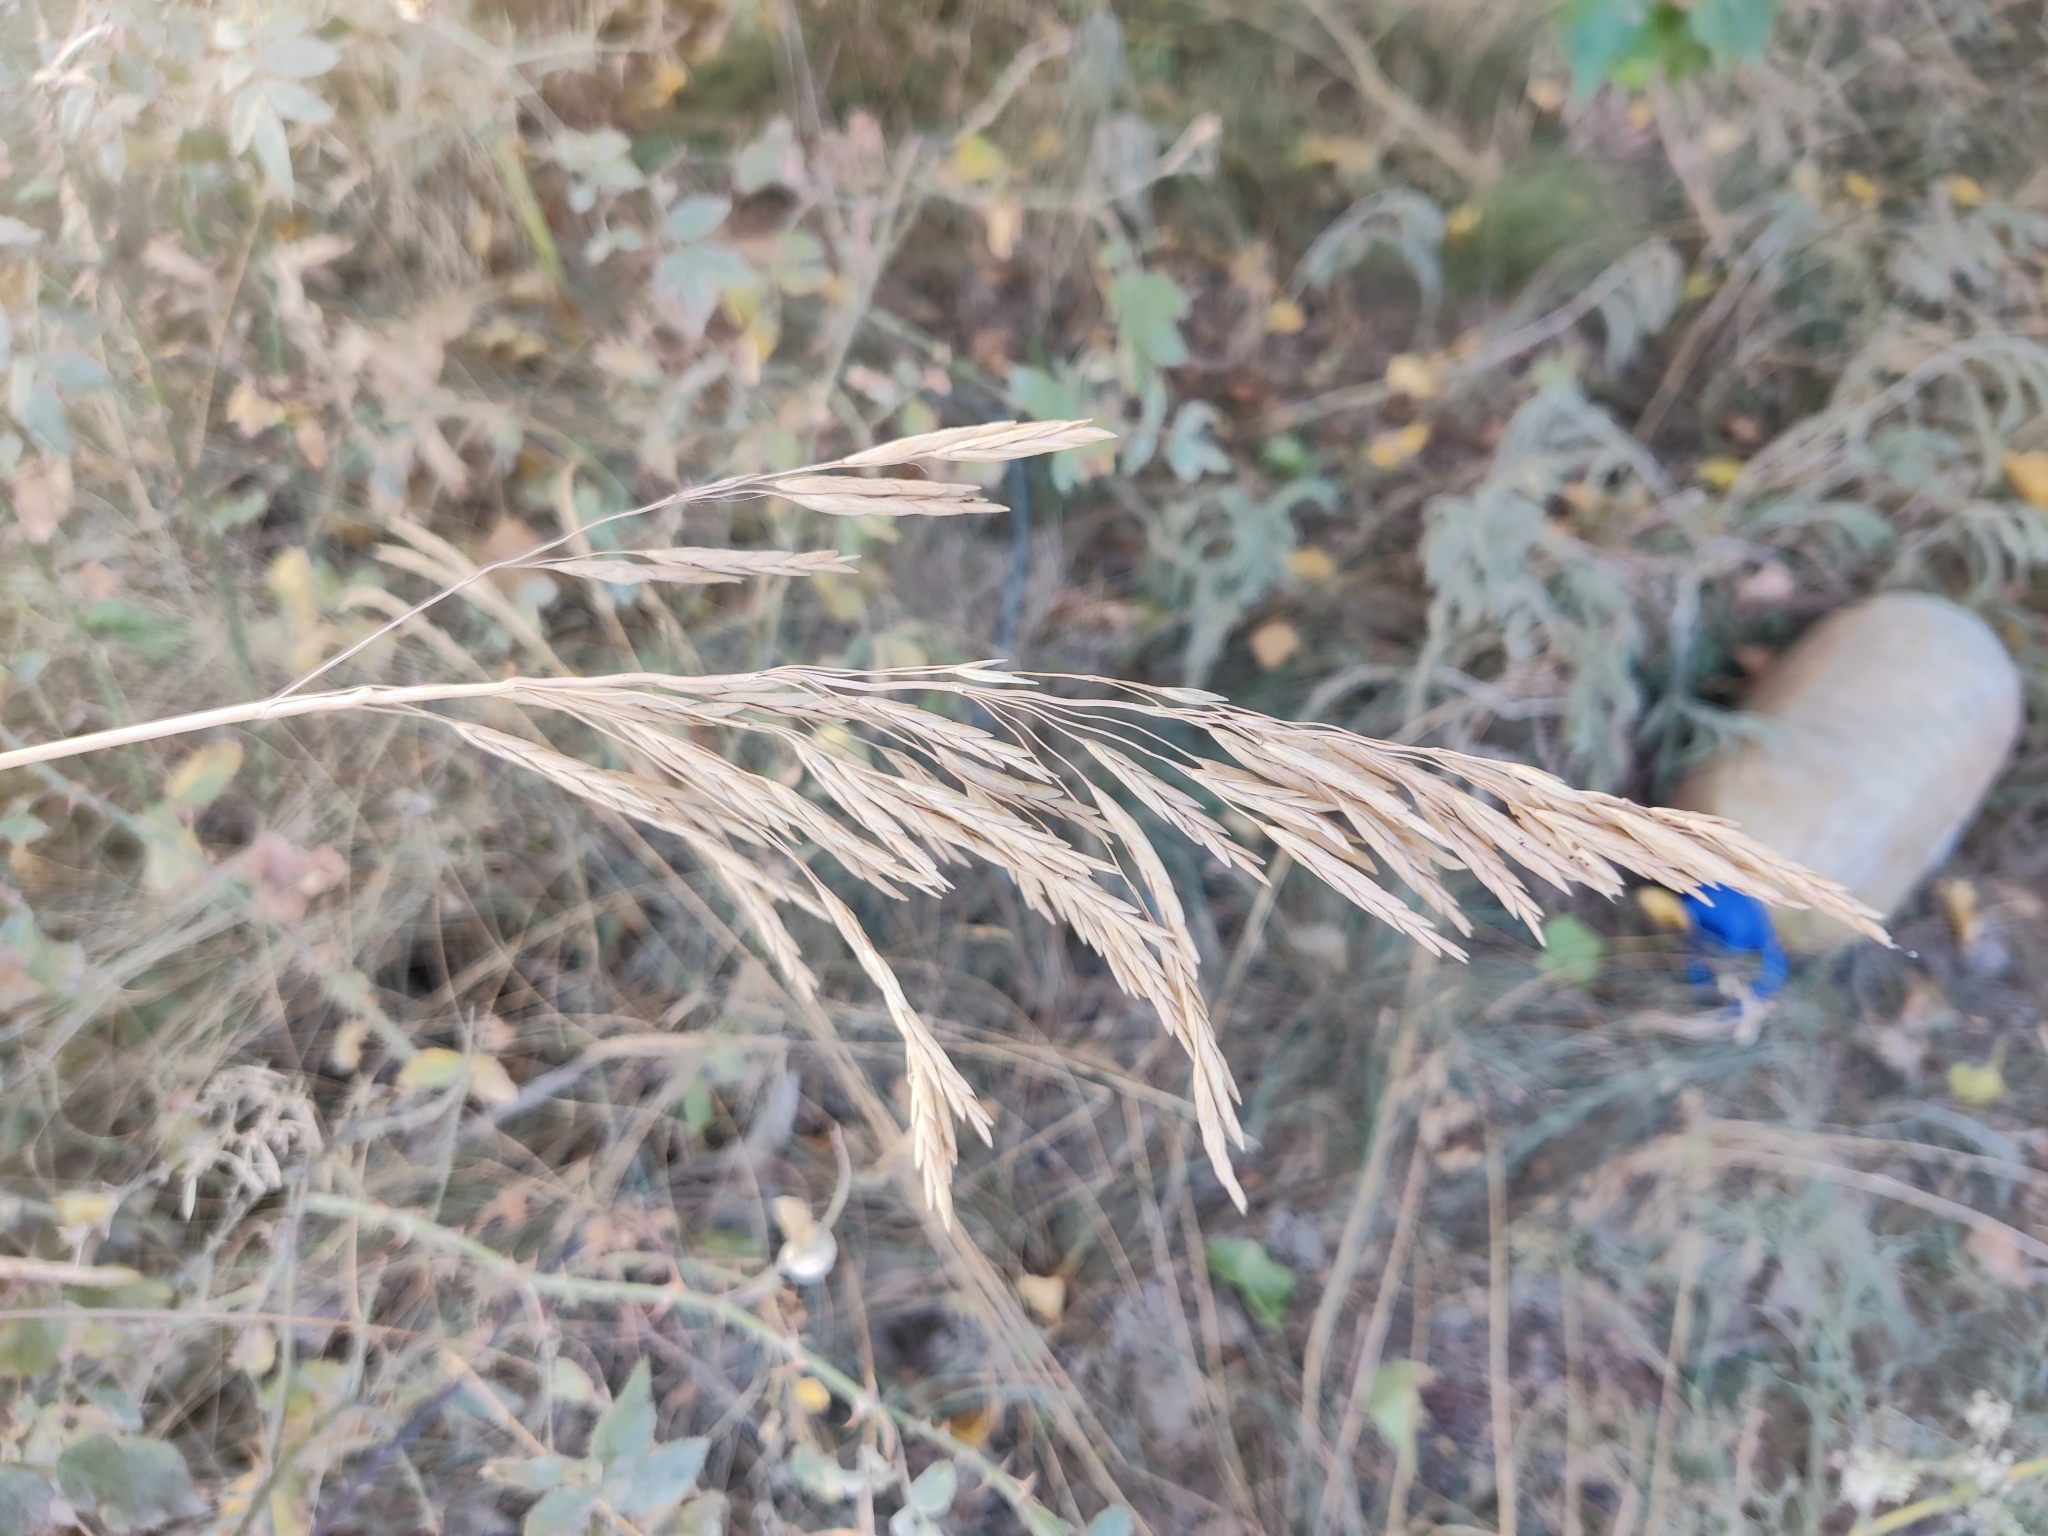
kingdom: Plantae
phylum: Tracheophyta
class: Liliopsida
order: Poales
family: Poaceae
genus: Bromus
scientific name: Bromus inermis
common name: Smooth brome
